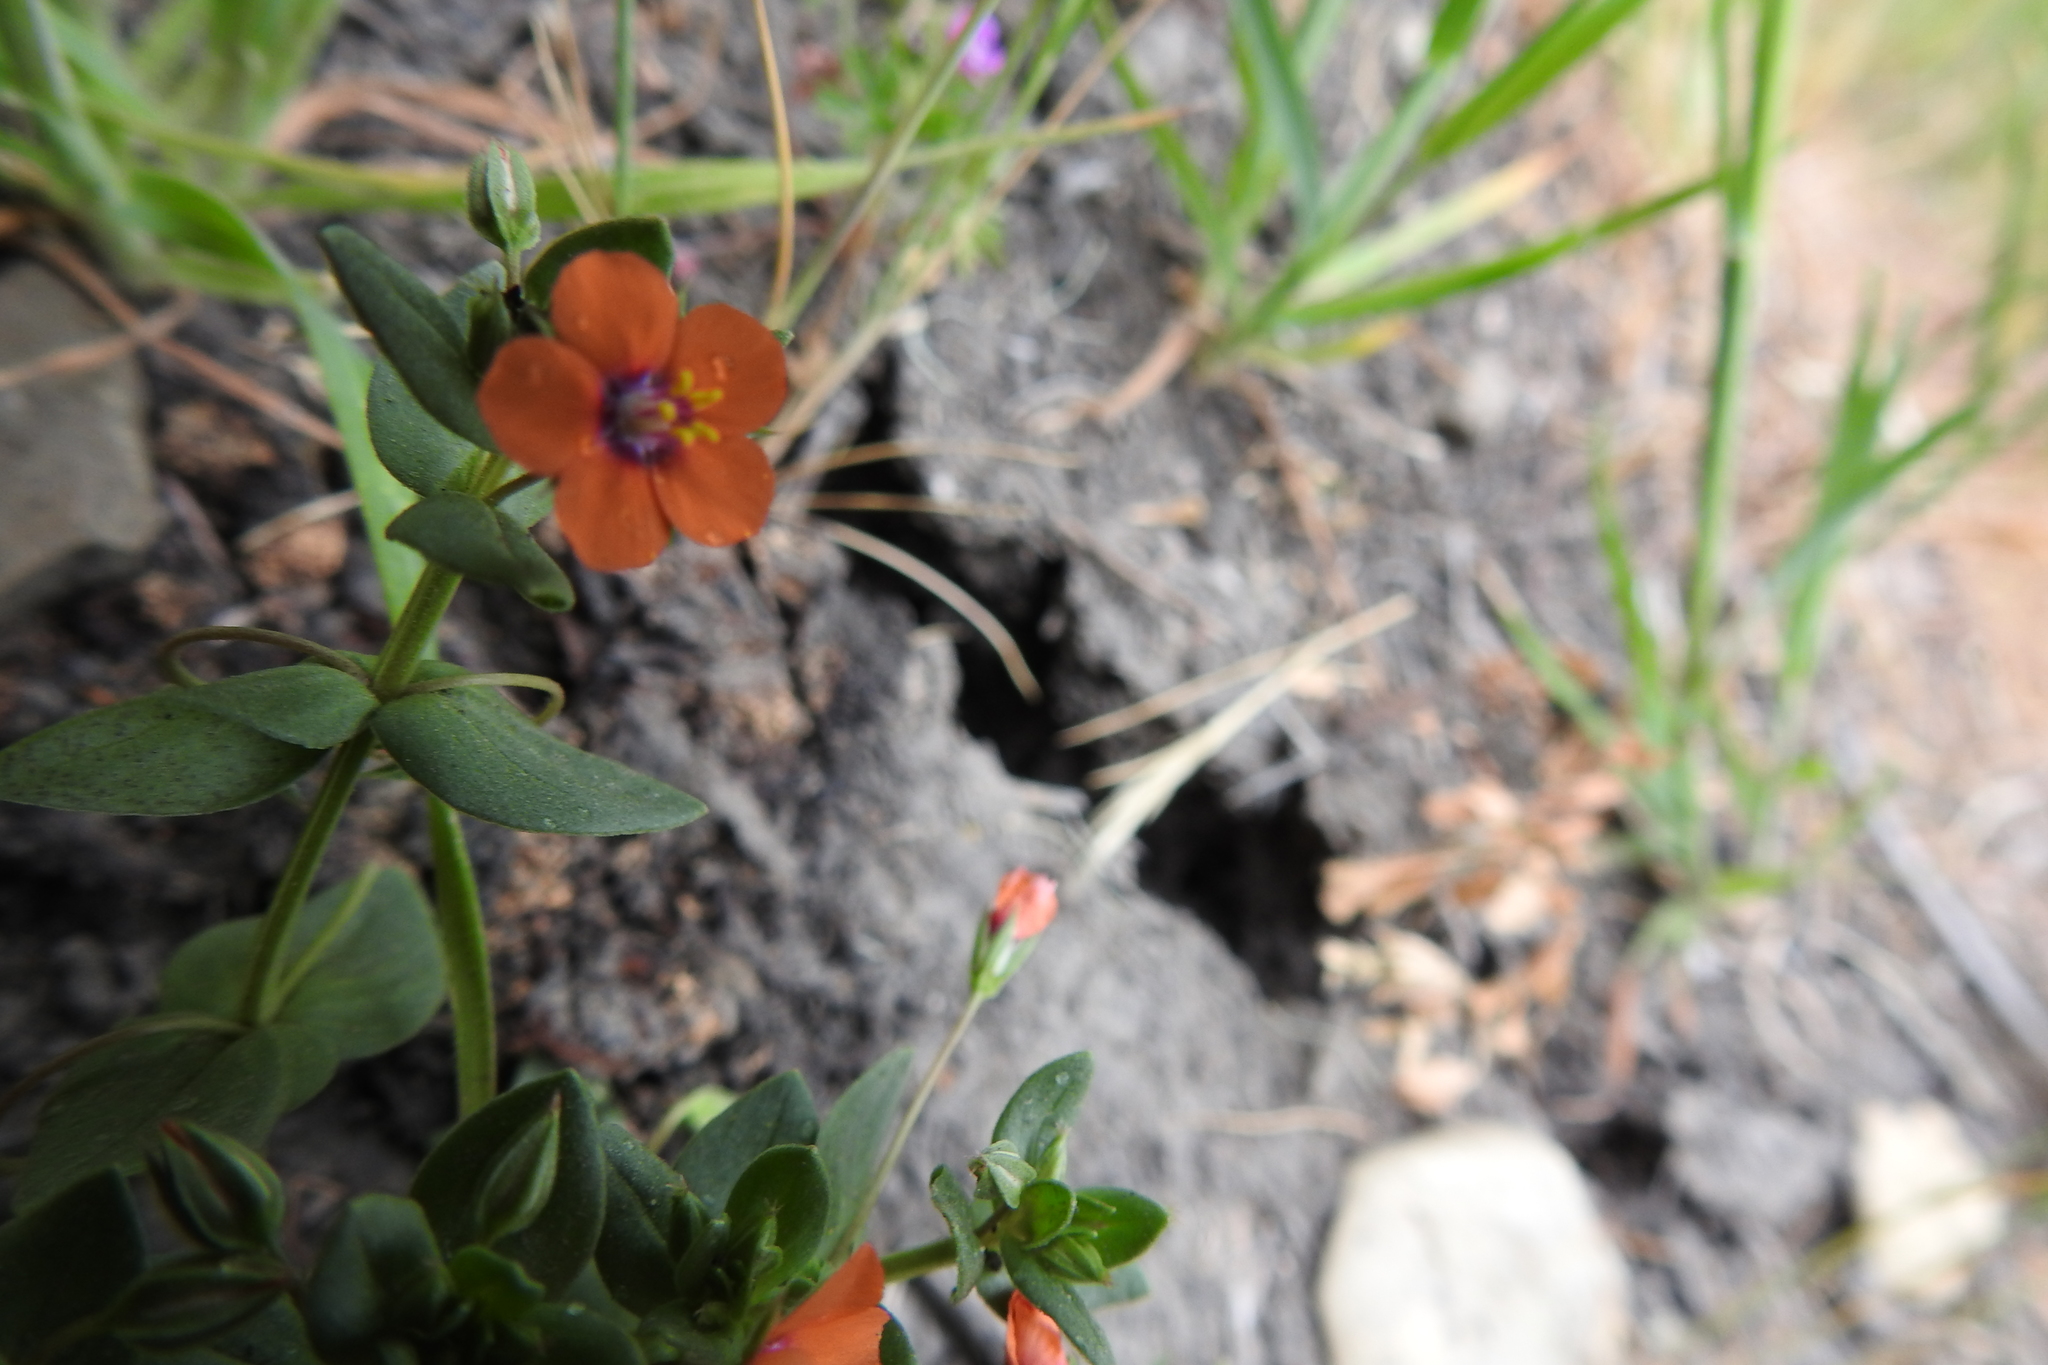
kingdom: Plantae
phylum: Tracheophyta
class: Magnoliopsida
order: Ericales
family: Primulaceae
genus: Lysimachia
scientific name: Lysimachia arvensis
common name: Scarlet pimpernel
